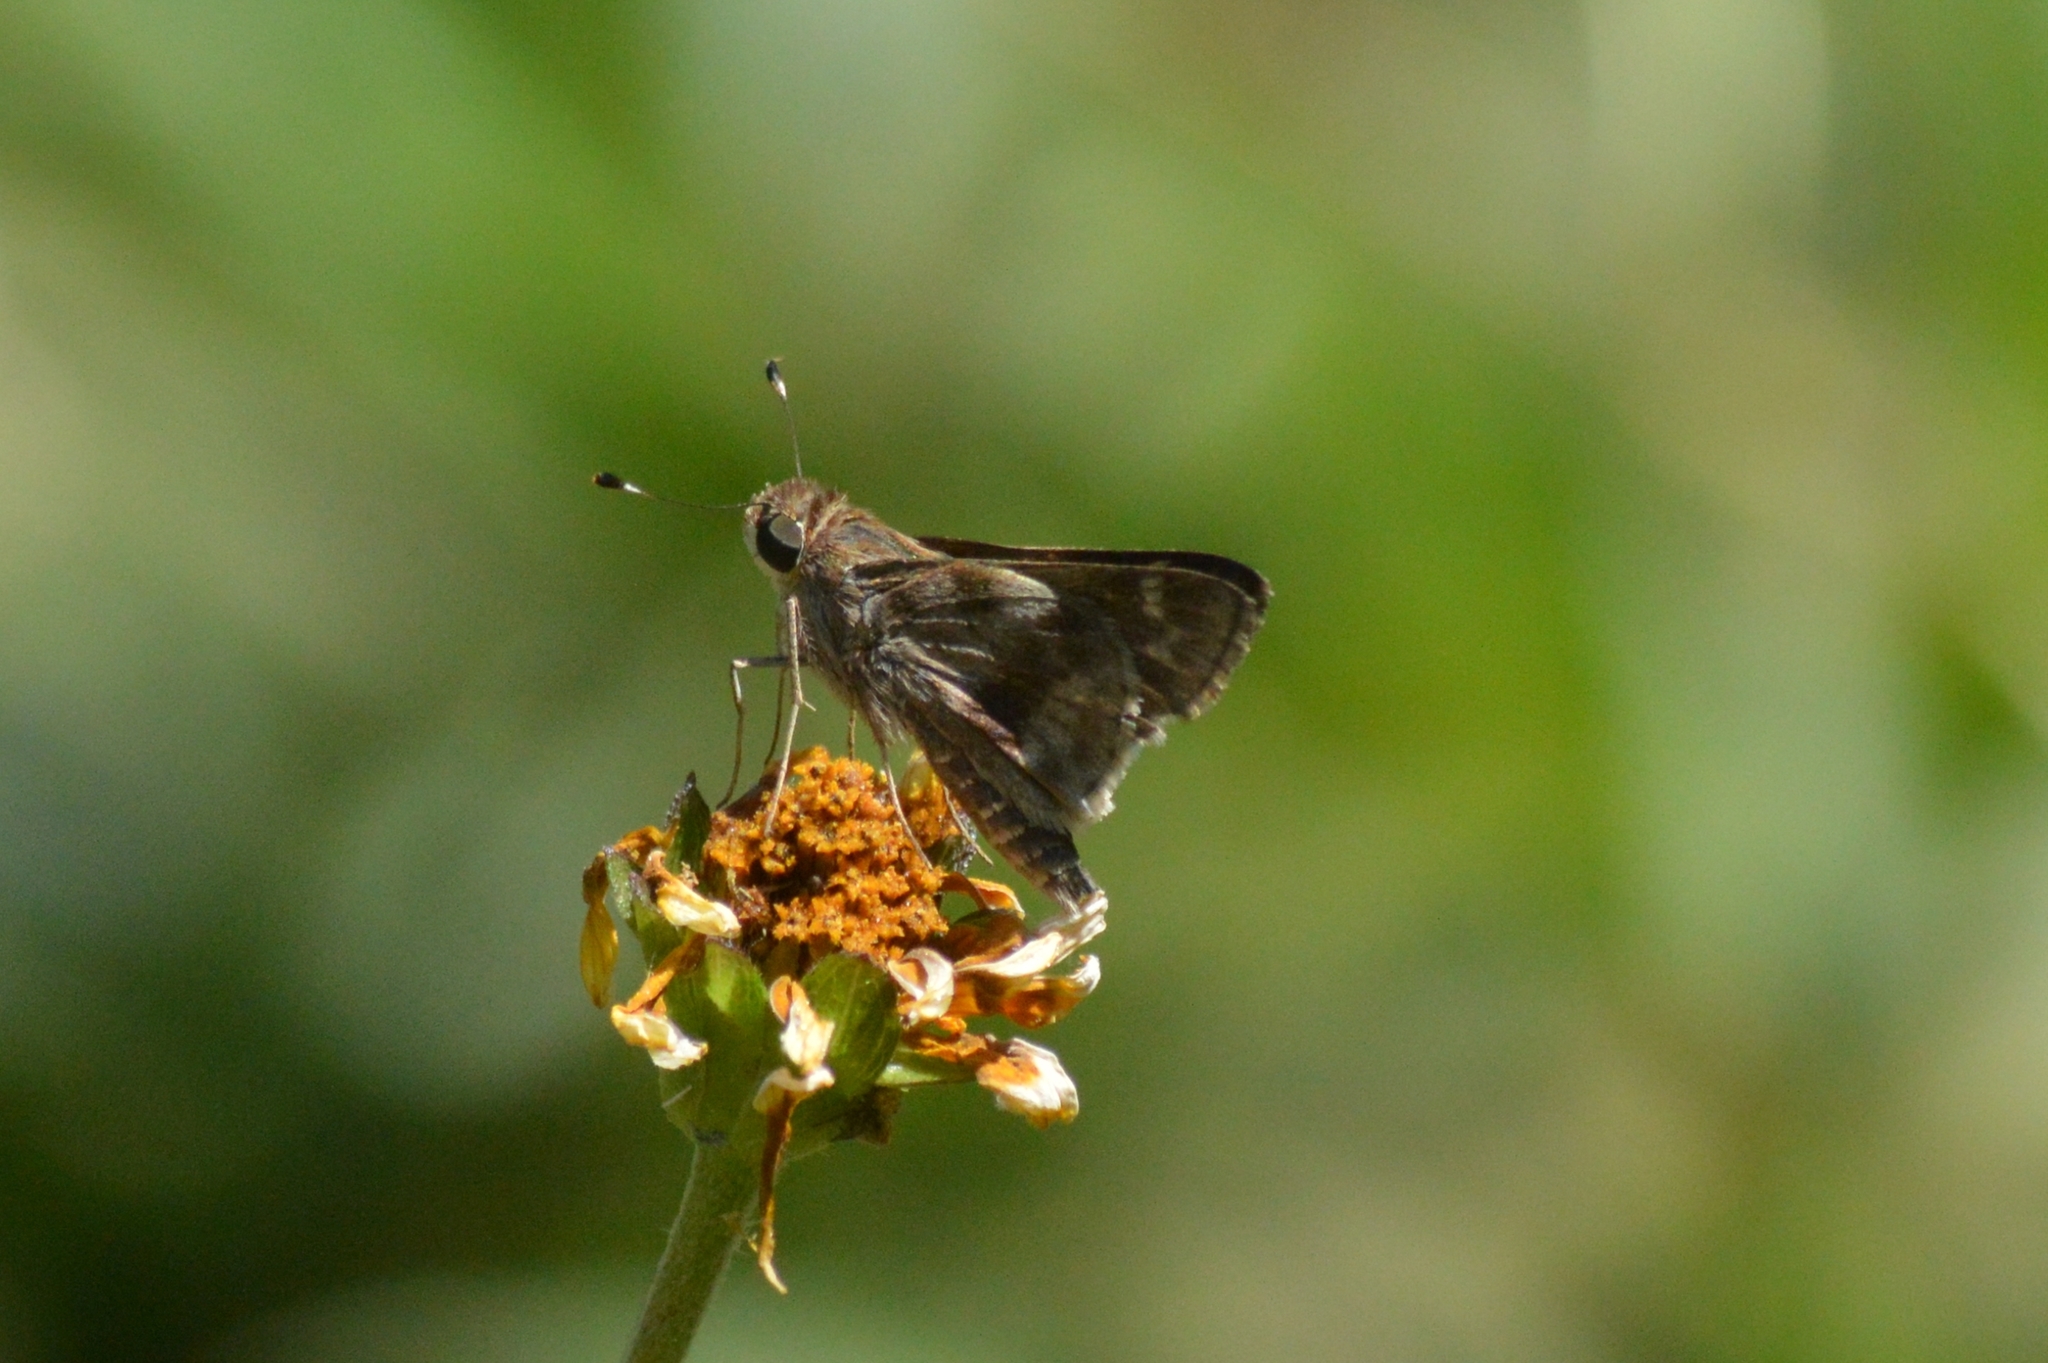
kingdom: Animalia
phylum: Arthropoda
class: Insecta
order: Lepidoptera
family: Hesperiidae
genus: Pompeius
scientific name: Pompeius pompeius
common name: Pompeius skipper
